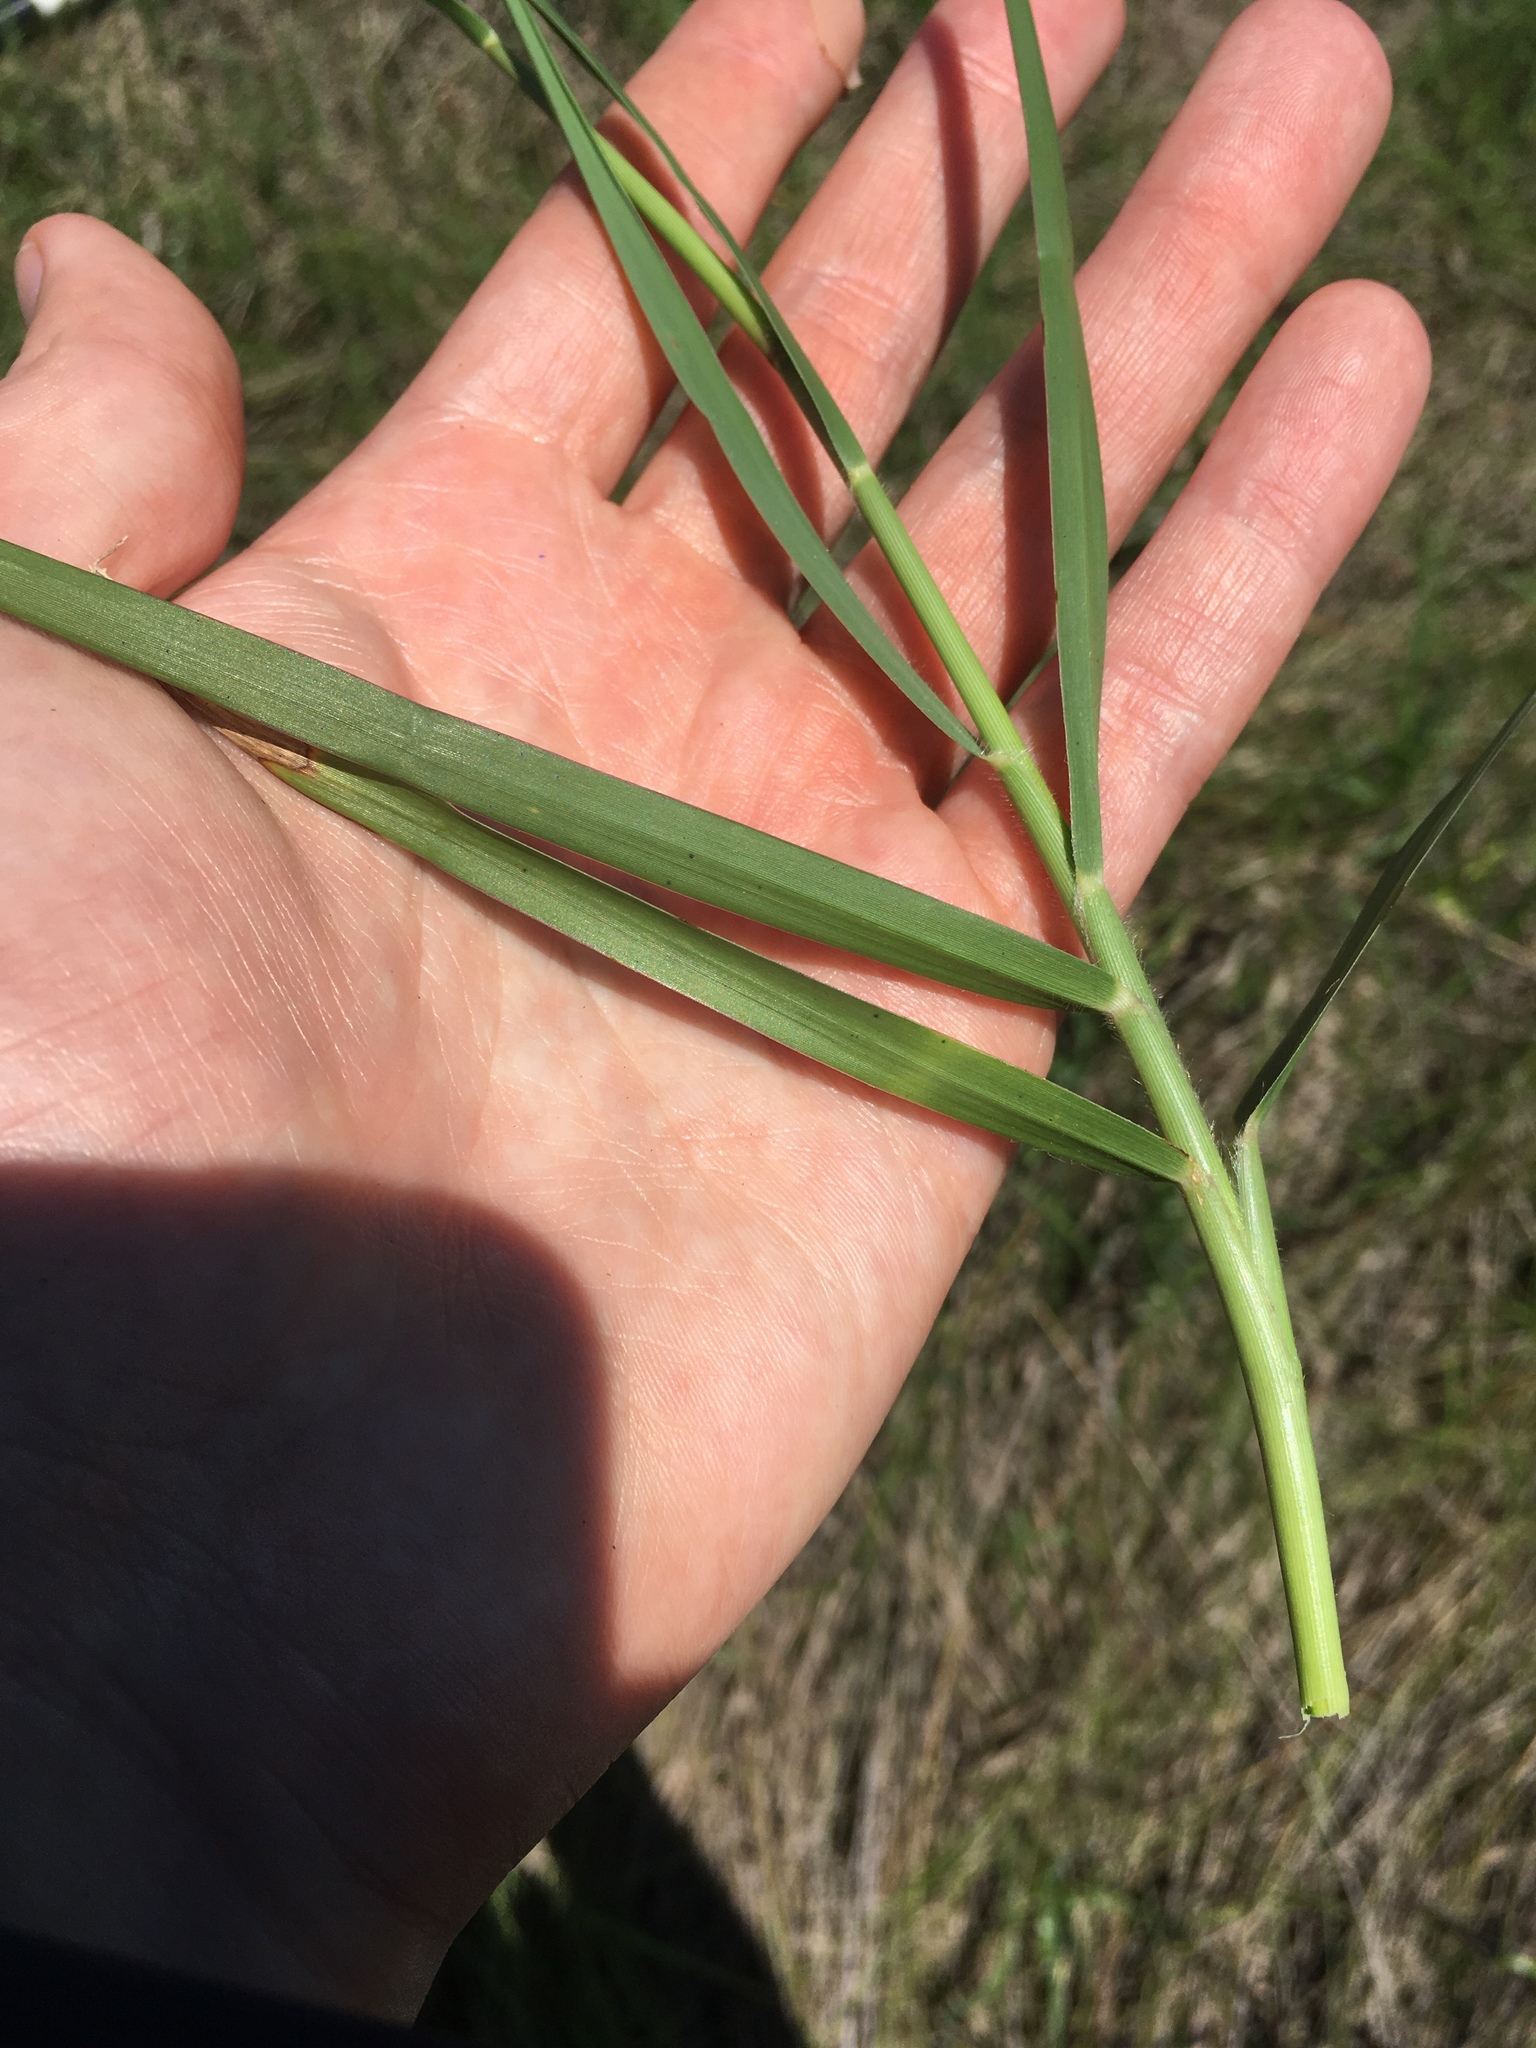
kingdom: Plantae
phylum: Tracheophyta
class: Liliopsida
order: Poales
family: Poaceae
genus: Panicum
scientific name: Panicum repens
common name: Torpedo grass
